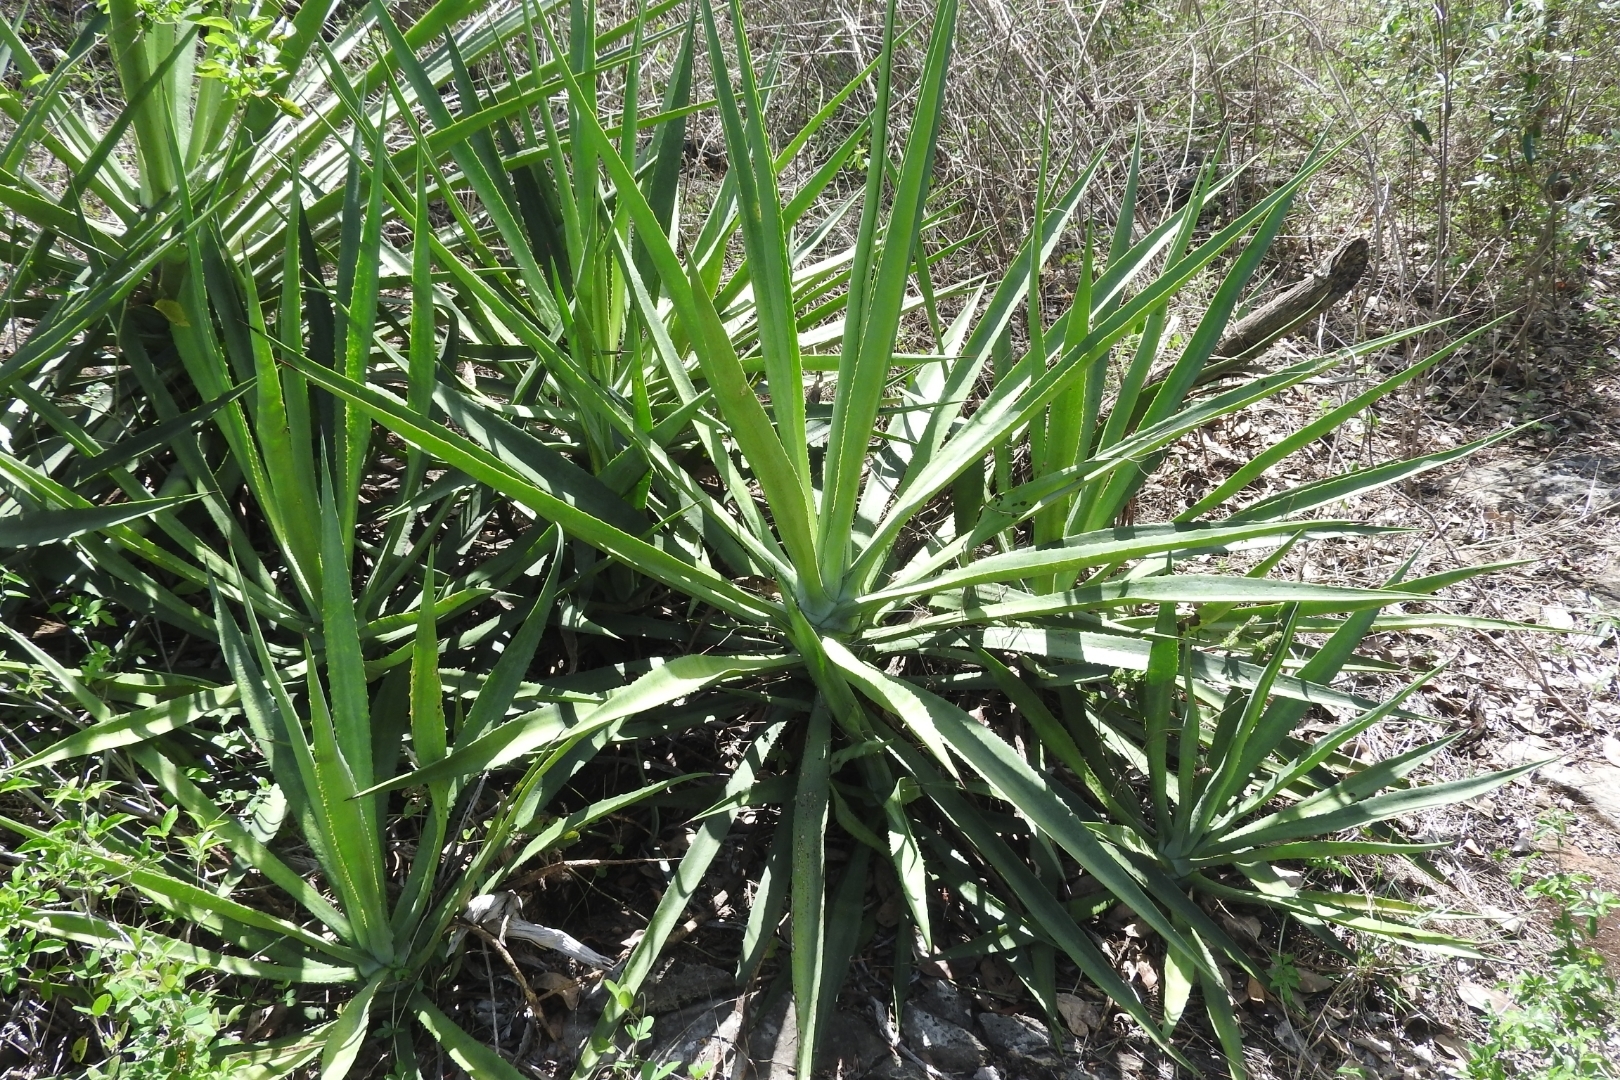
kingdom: Plantae
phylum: Tracheophyta
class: Liliopsida
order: Asparagales
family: Asparagaceae
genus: Agave
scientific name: Agave angustifolia
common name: Mescal agave
